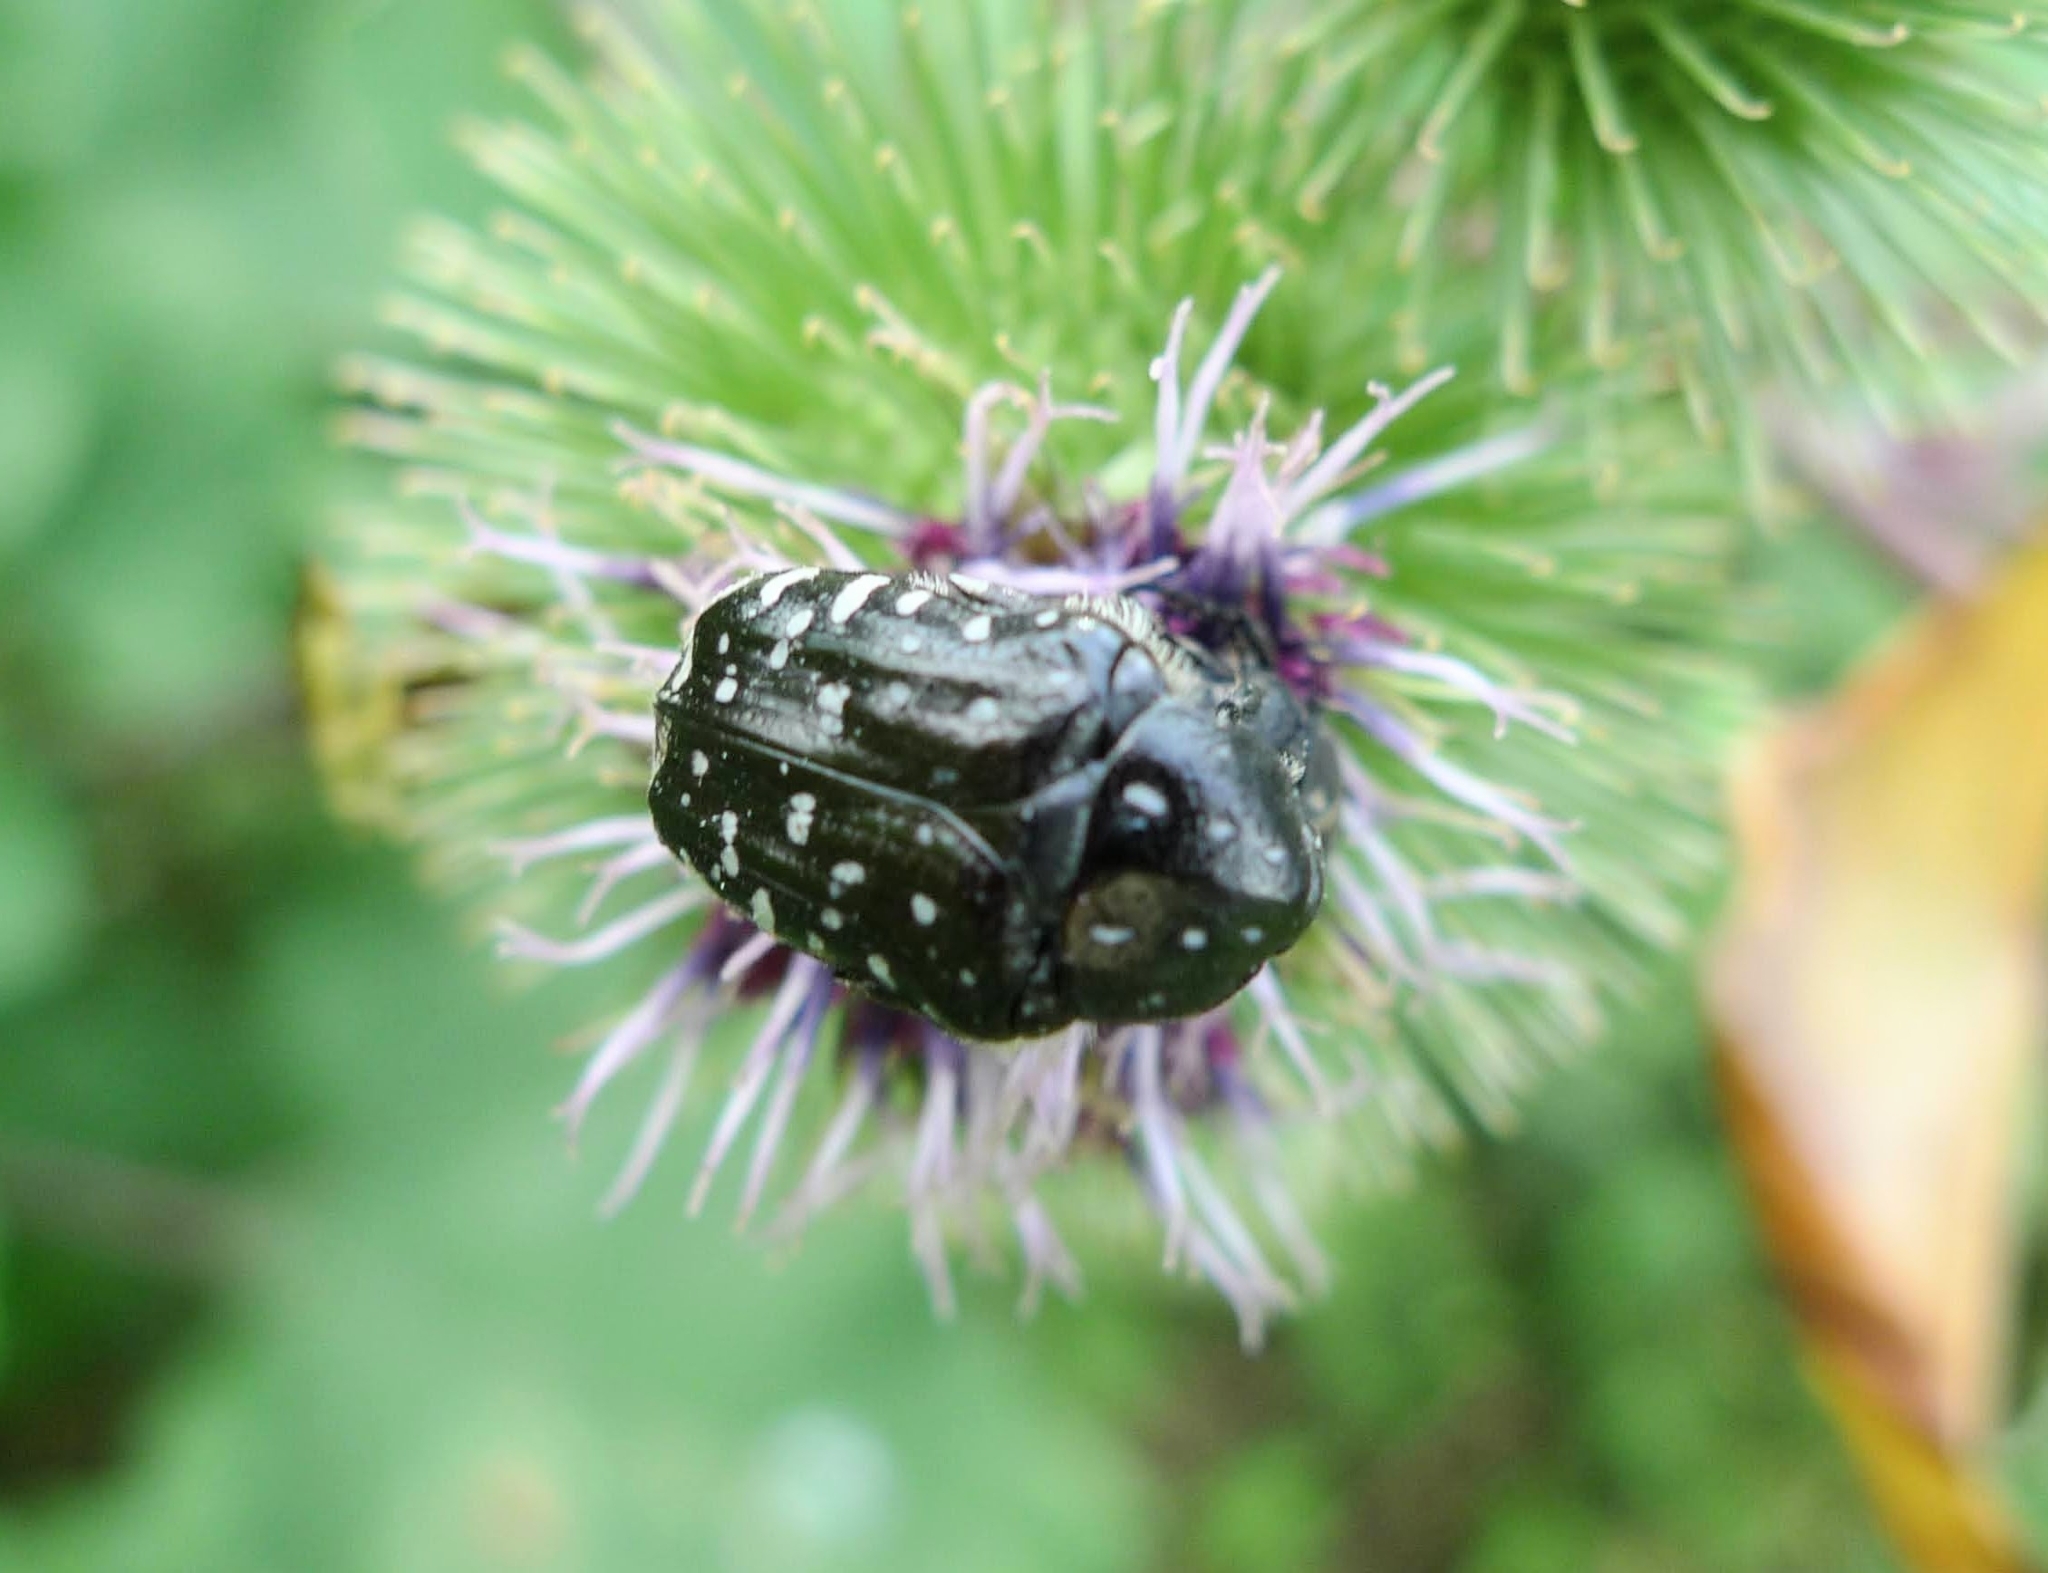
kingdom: Animalia
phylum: Arthropoda
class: Insecta
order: Coleoptera
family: Scarabaeidae
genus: Oxythyrea
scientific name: Oxythyrea funesta
